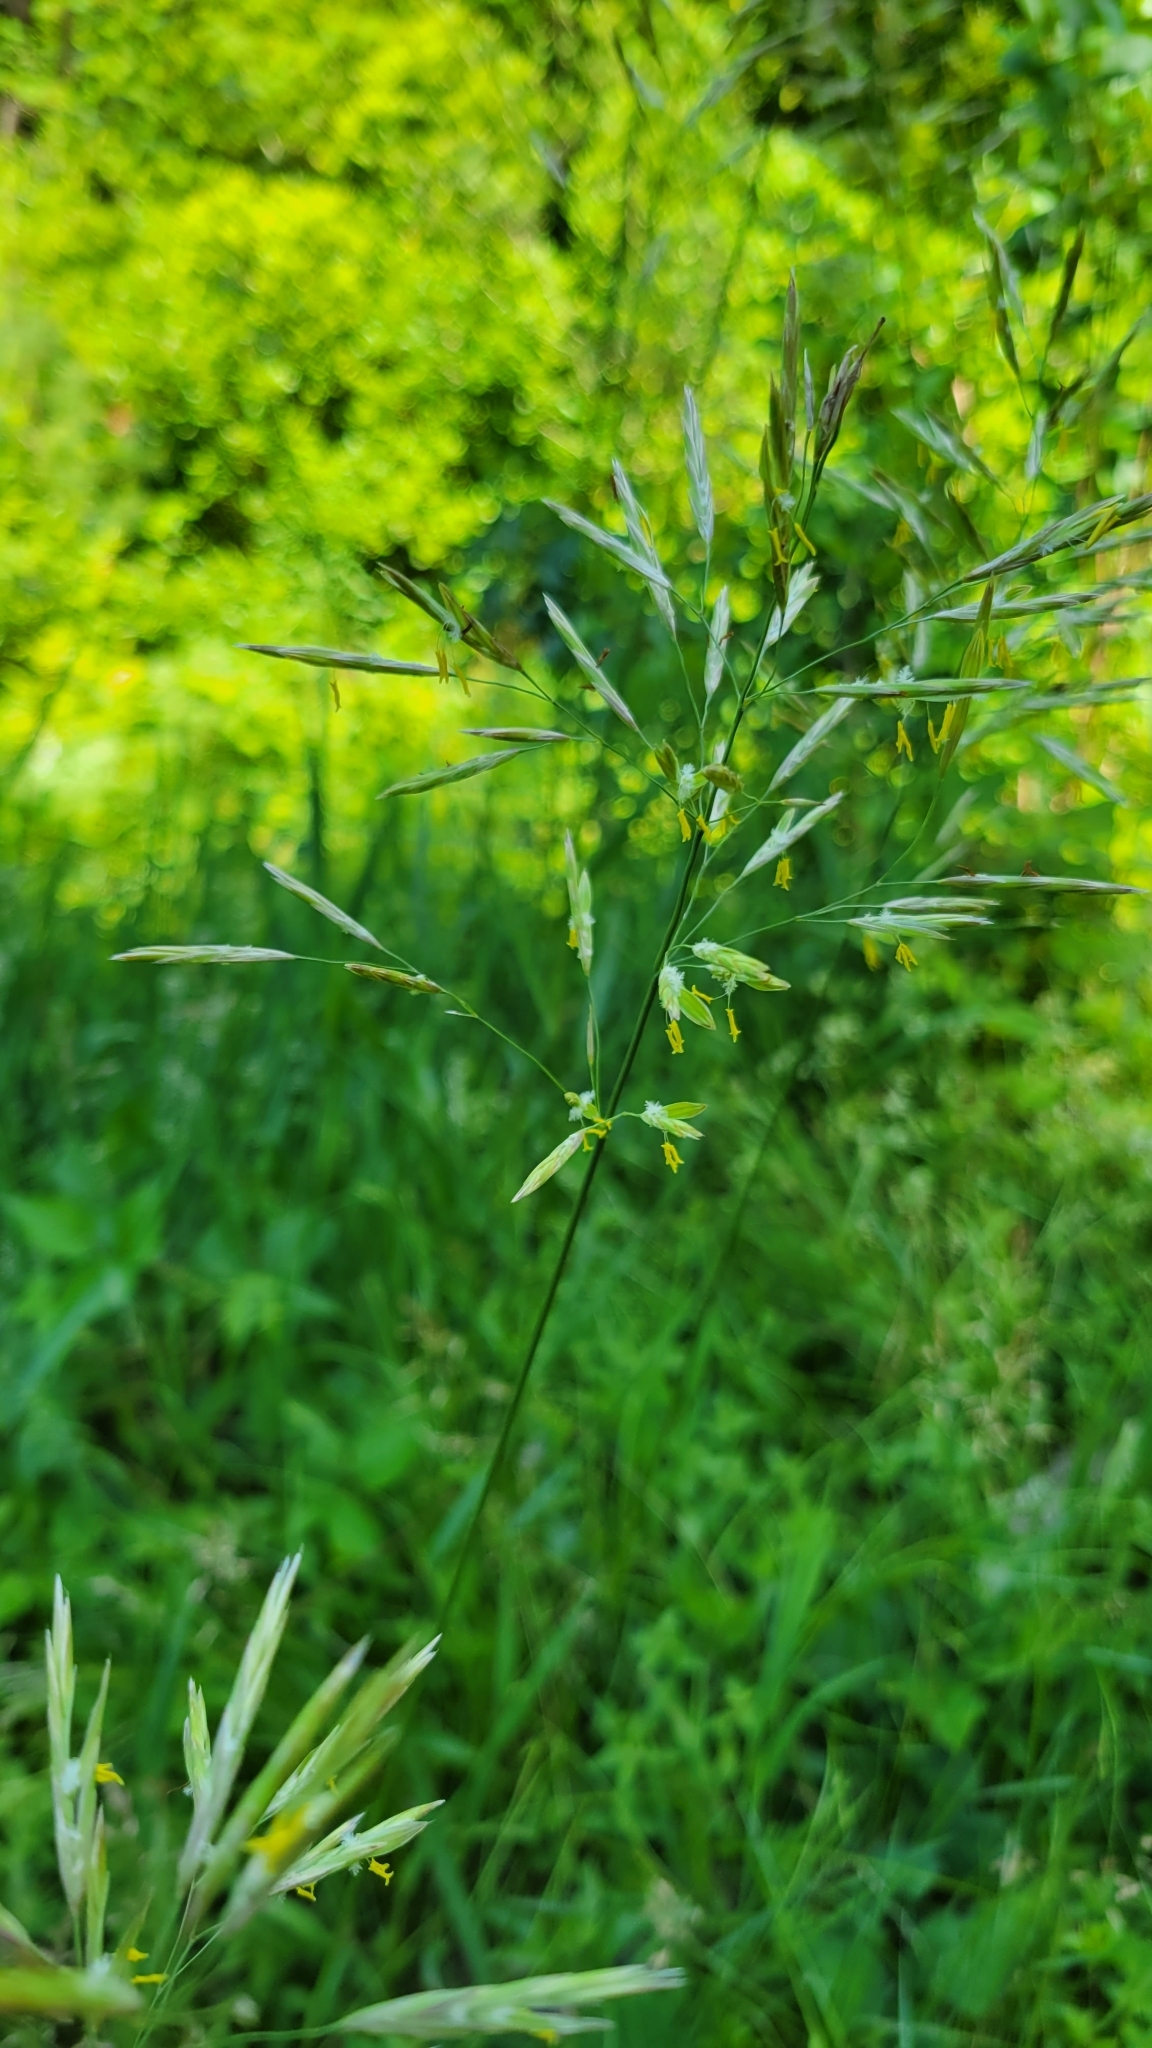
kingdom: Plantae
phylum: Tracheophyta
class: Liliopsida
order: Poales
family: Poaceae
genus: Bromus
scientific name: Bromus inermis
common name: Smooth brome
